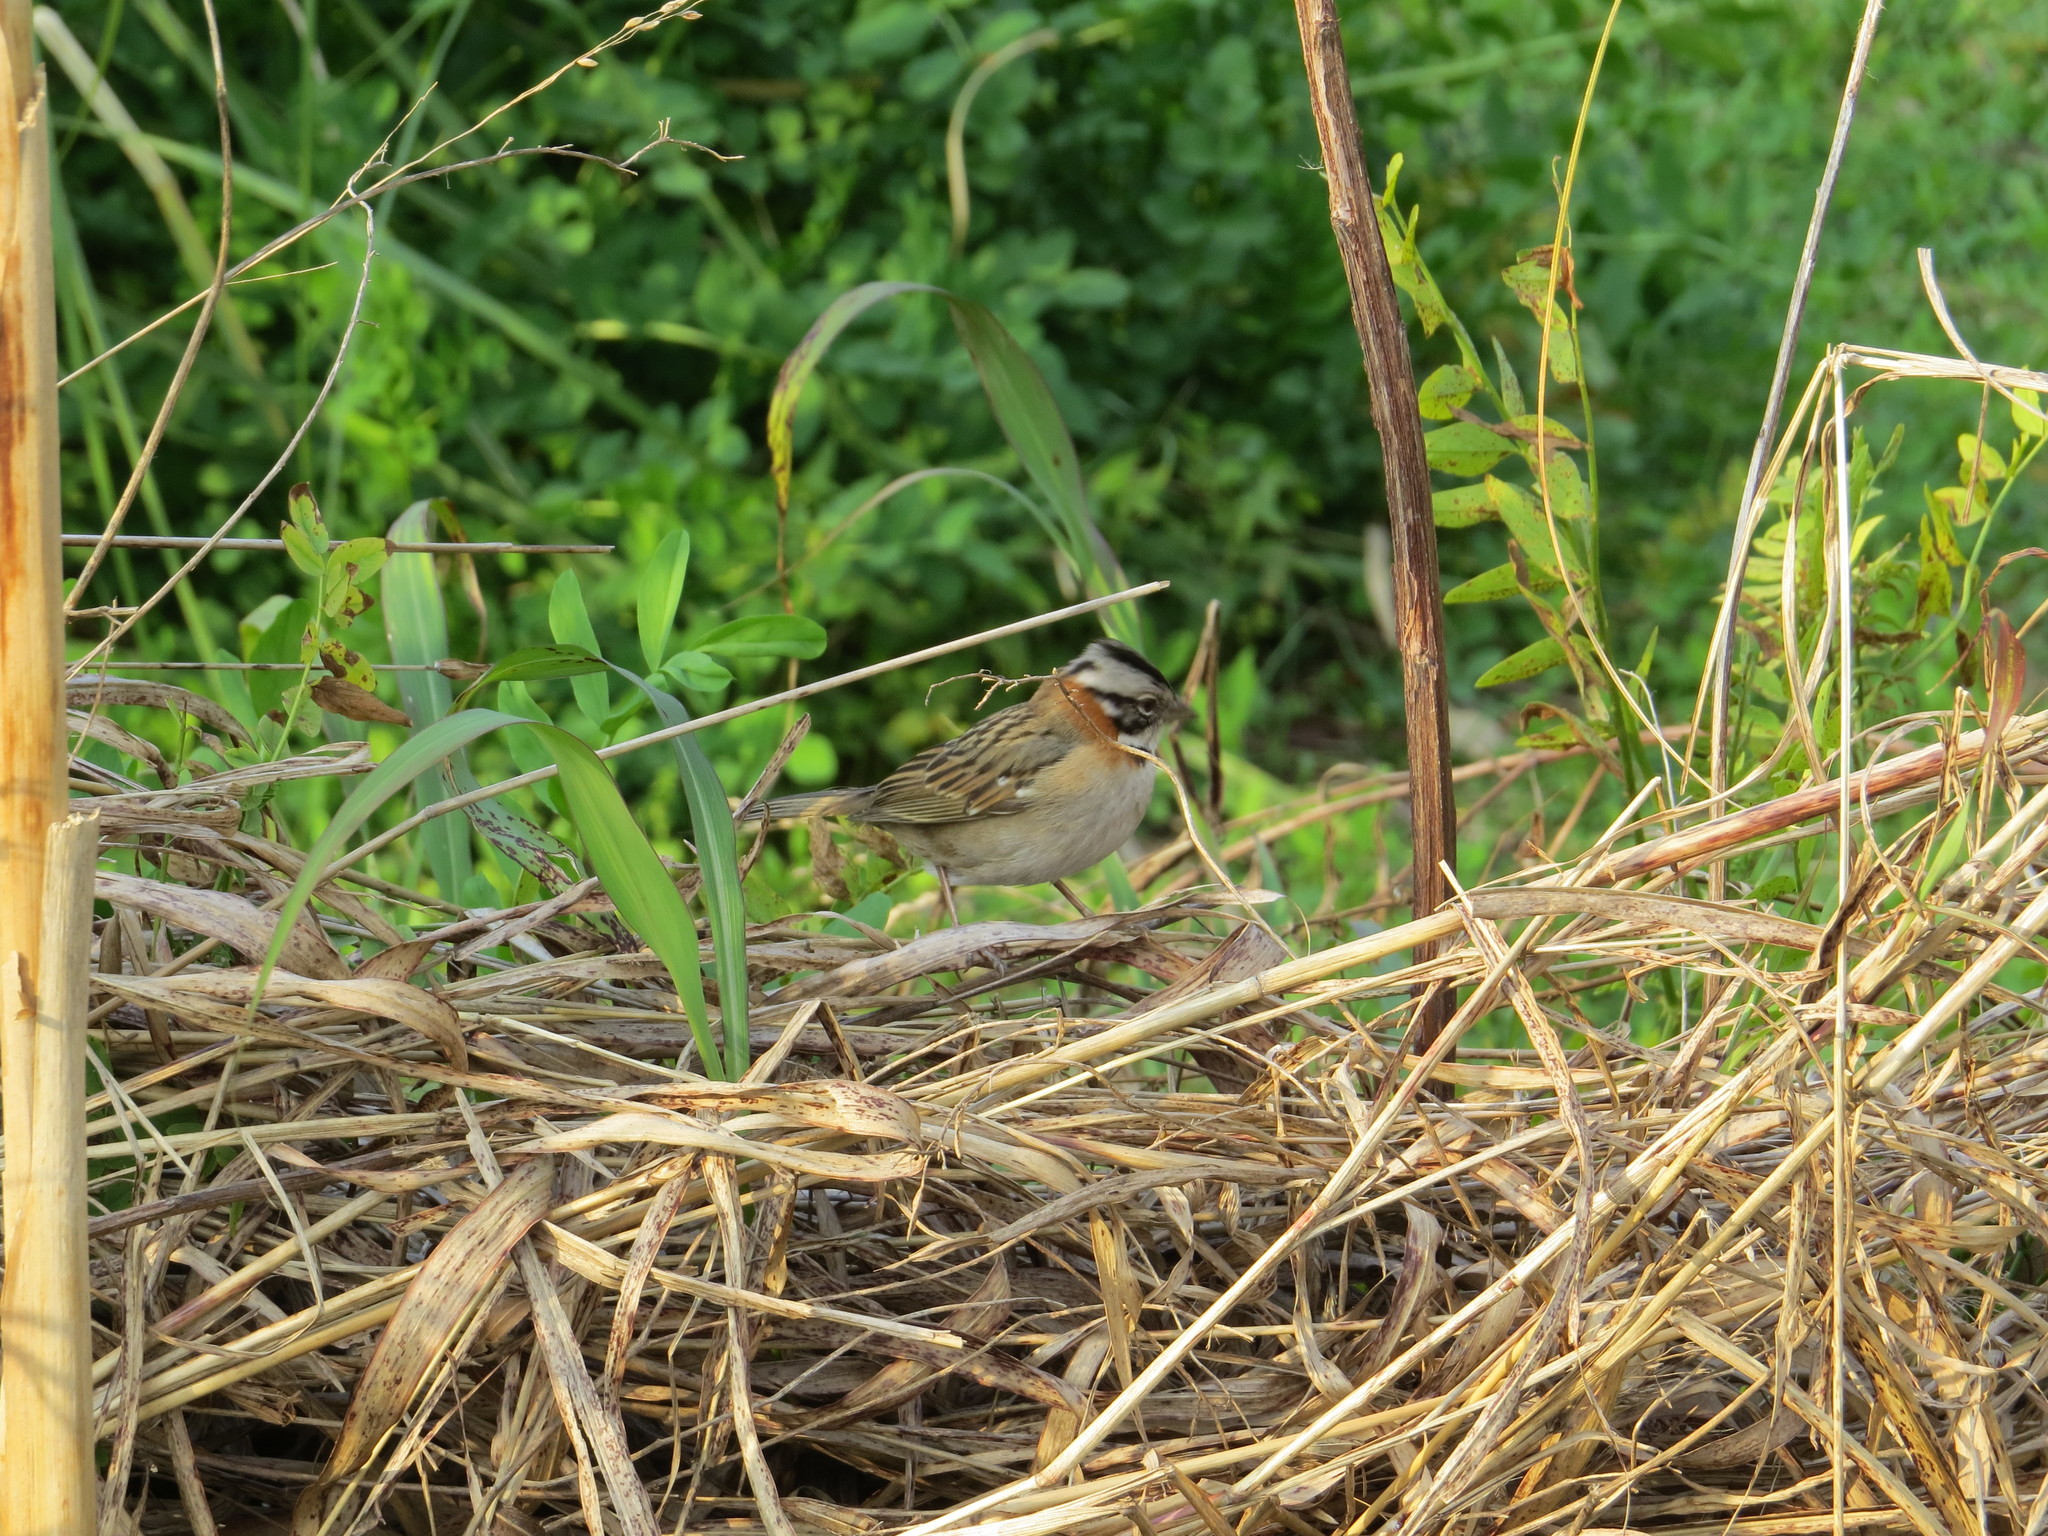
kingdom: Animalia
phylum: Chordata
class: Aves
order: Passeriformes
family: Passerellidae
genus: Zonotrichia
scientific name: Zonotrichia capensis
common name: Rufous-collared sparrow
